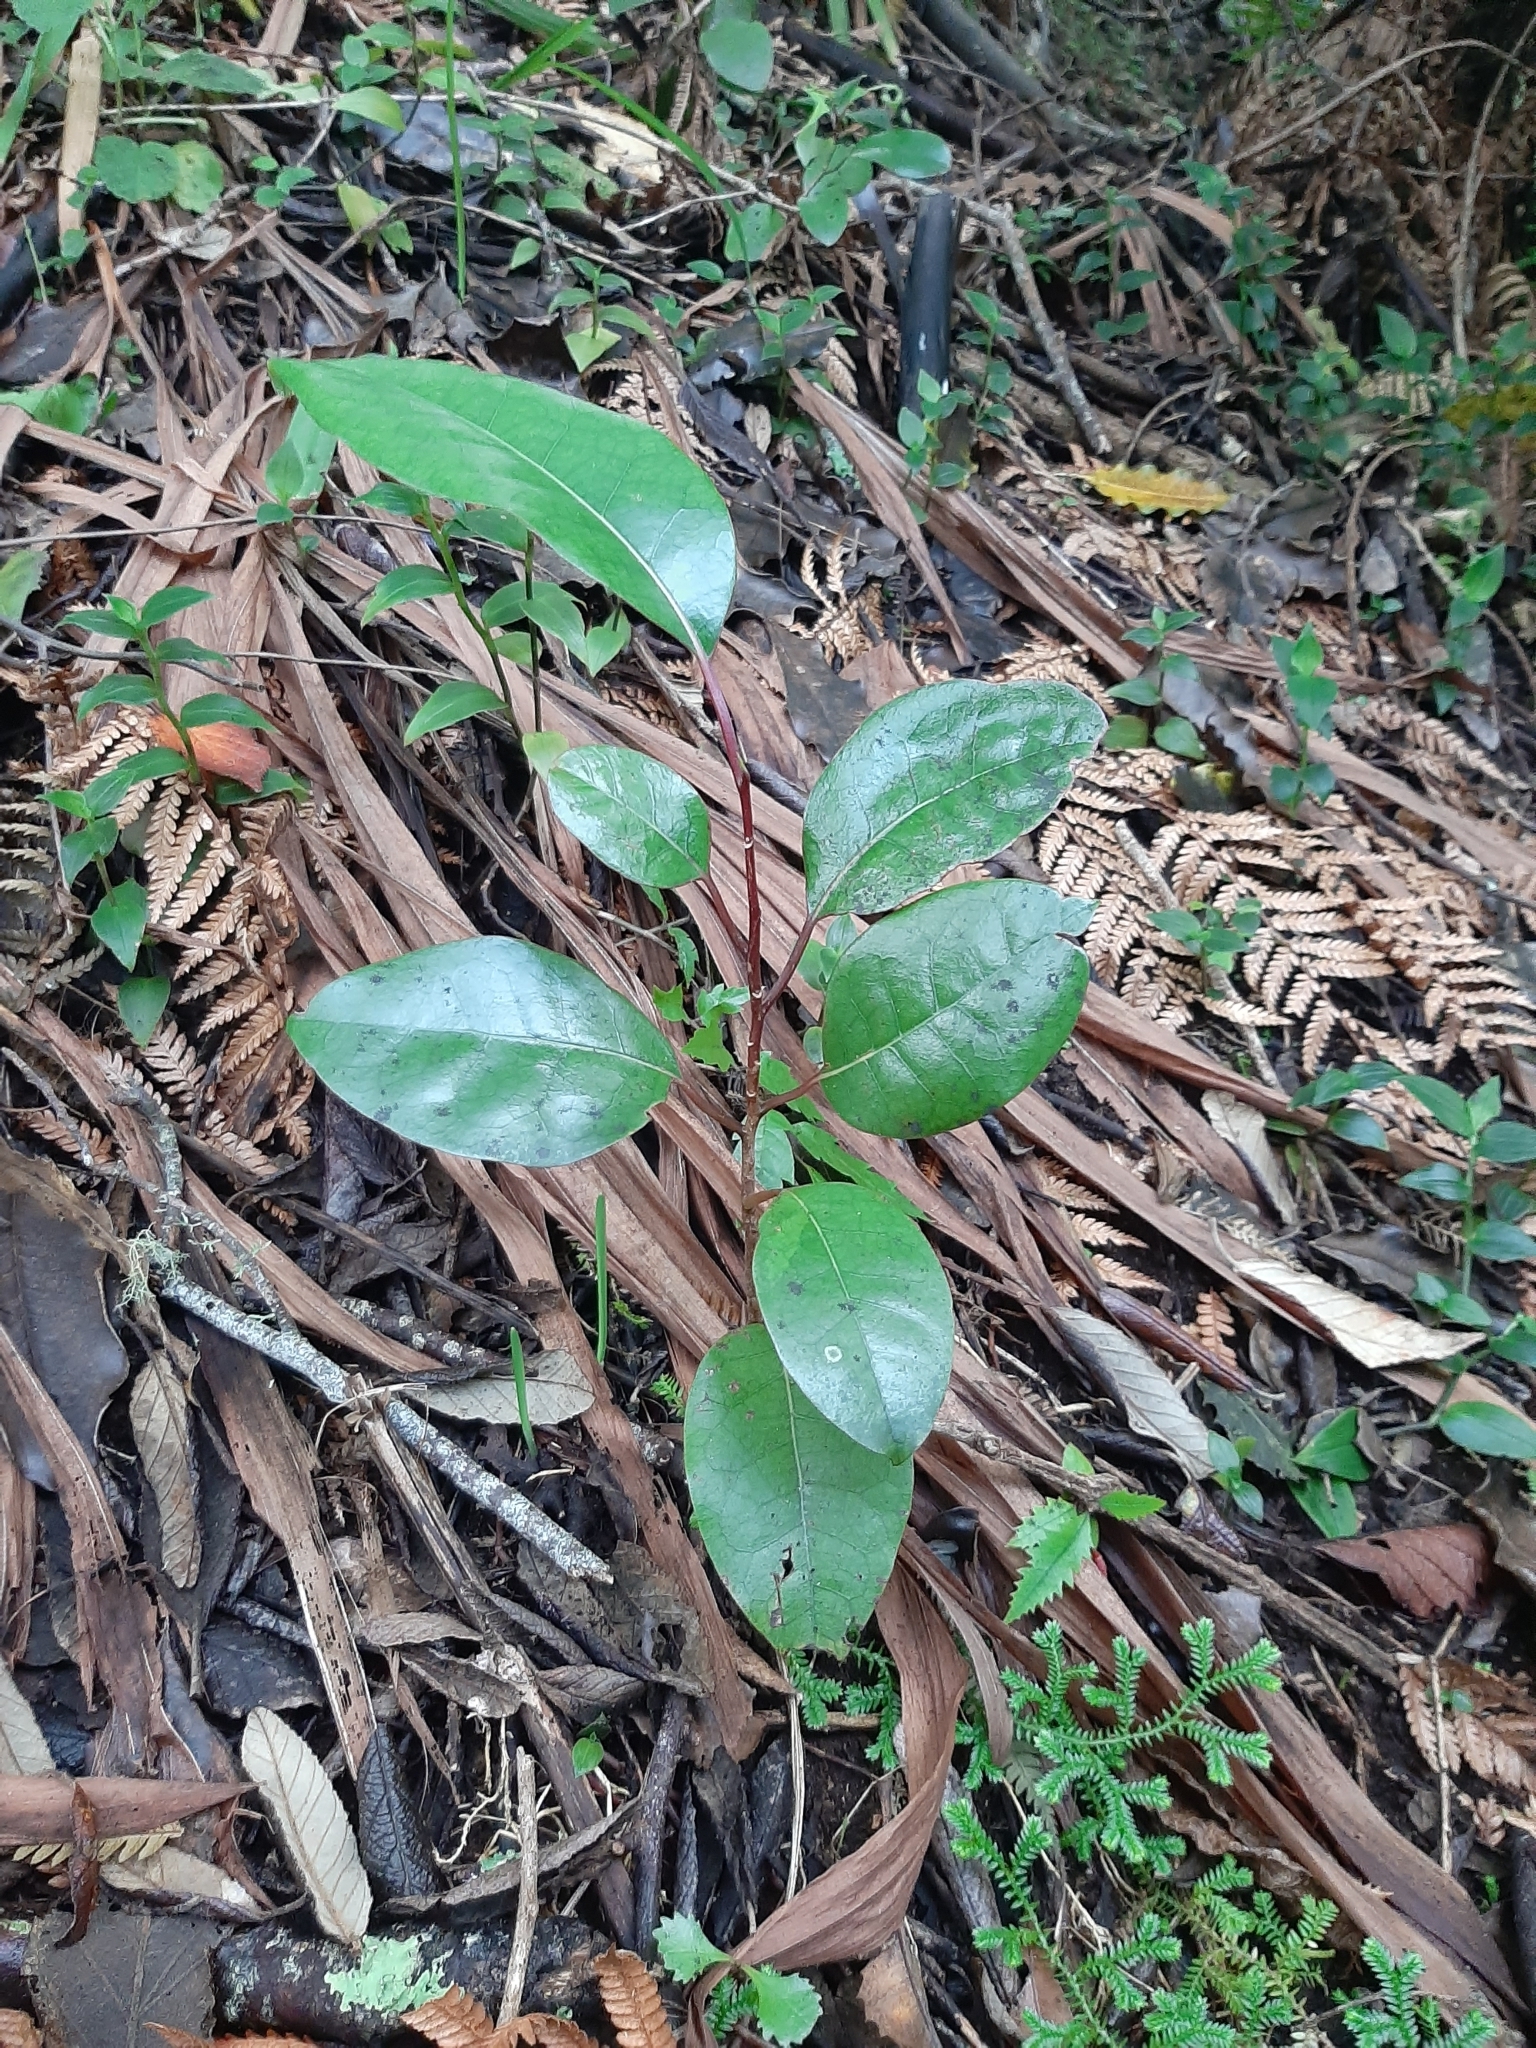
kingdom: Plantae
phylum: Tracheophyta
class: Magnoliopsida
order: Laurales
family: Lauraceae
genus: Litsea
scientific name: Litsea calicaris
